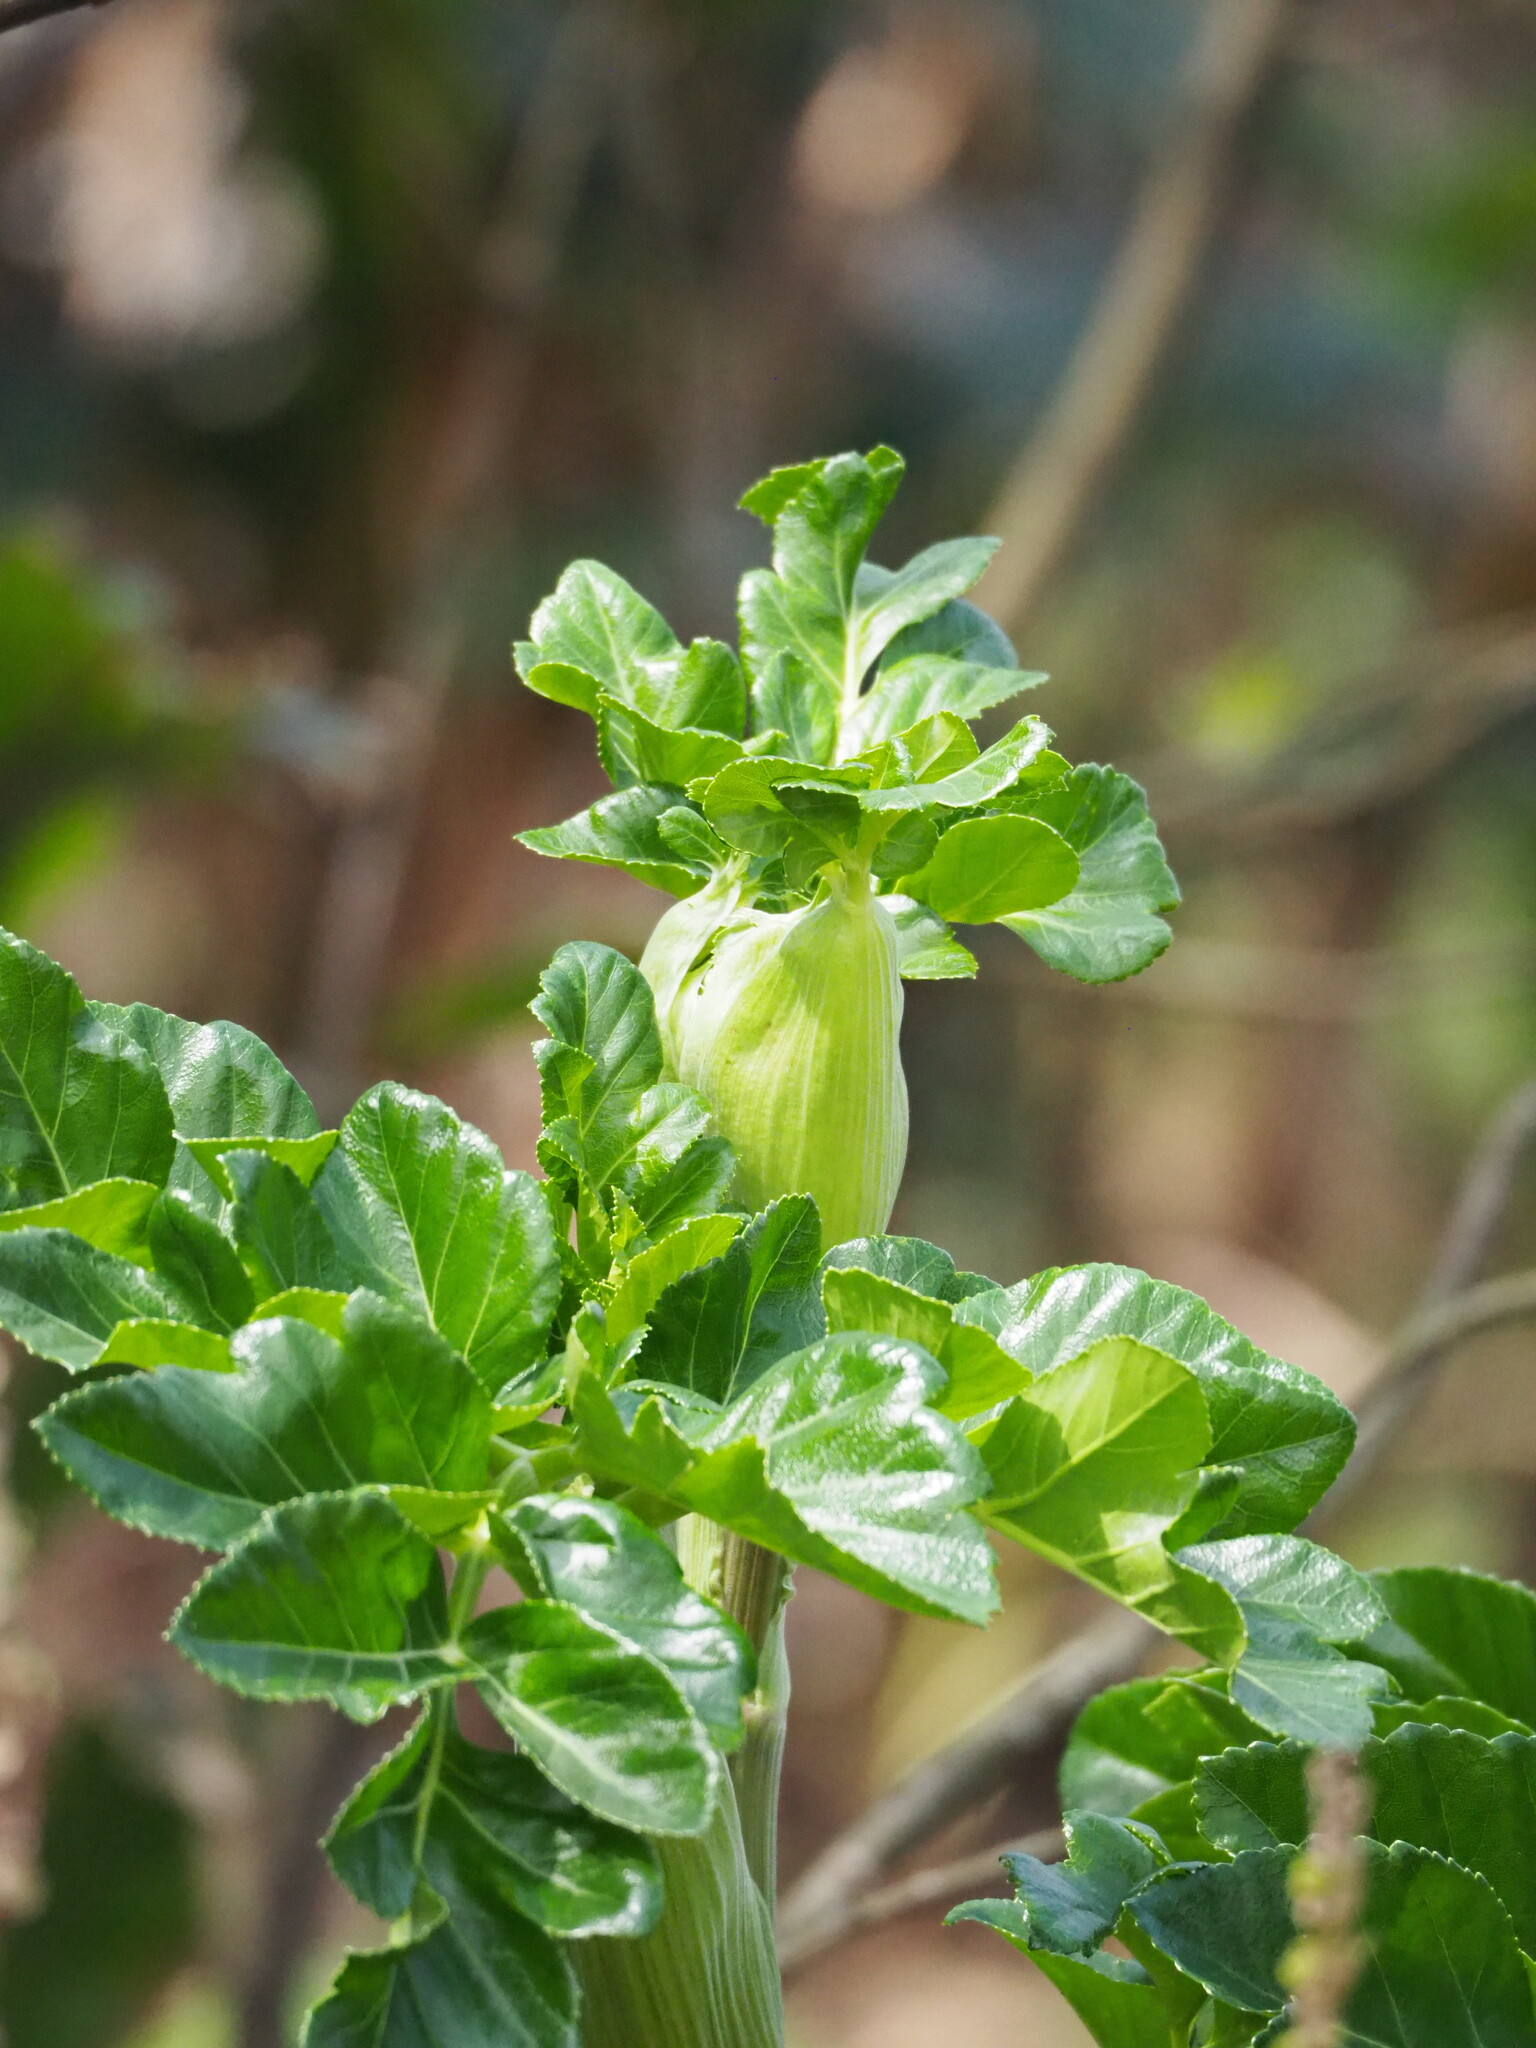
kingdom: Plantae
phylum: Tracheophyta
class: Magnoliopsida
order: Apiales
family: Apiaceae
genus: Angelica
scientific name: Angelica hirsutiflora
